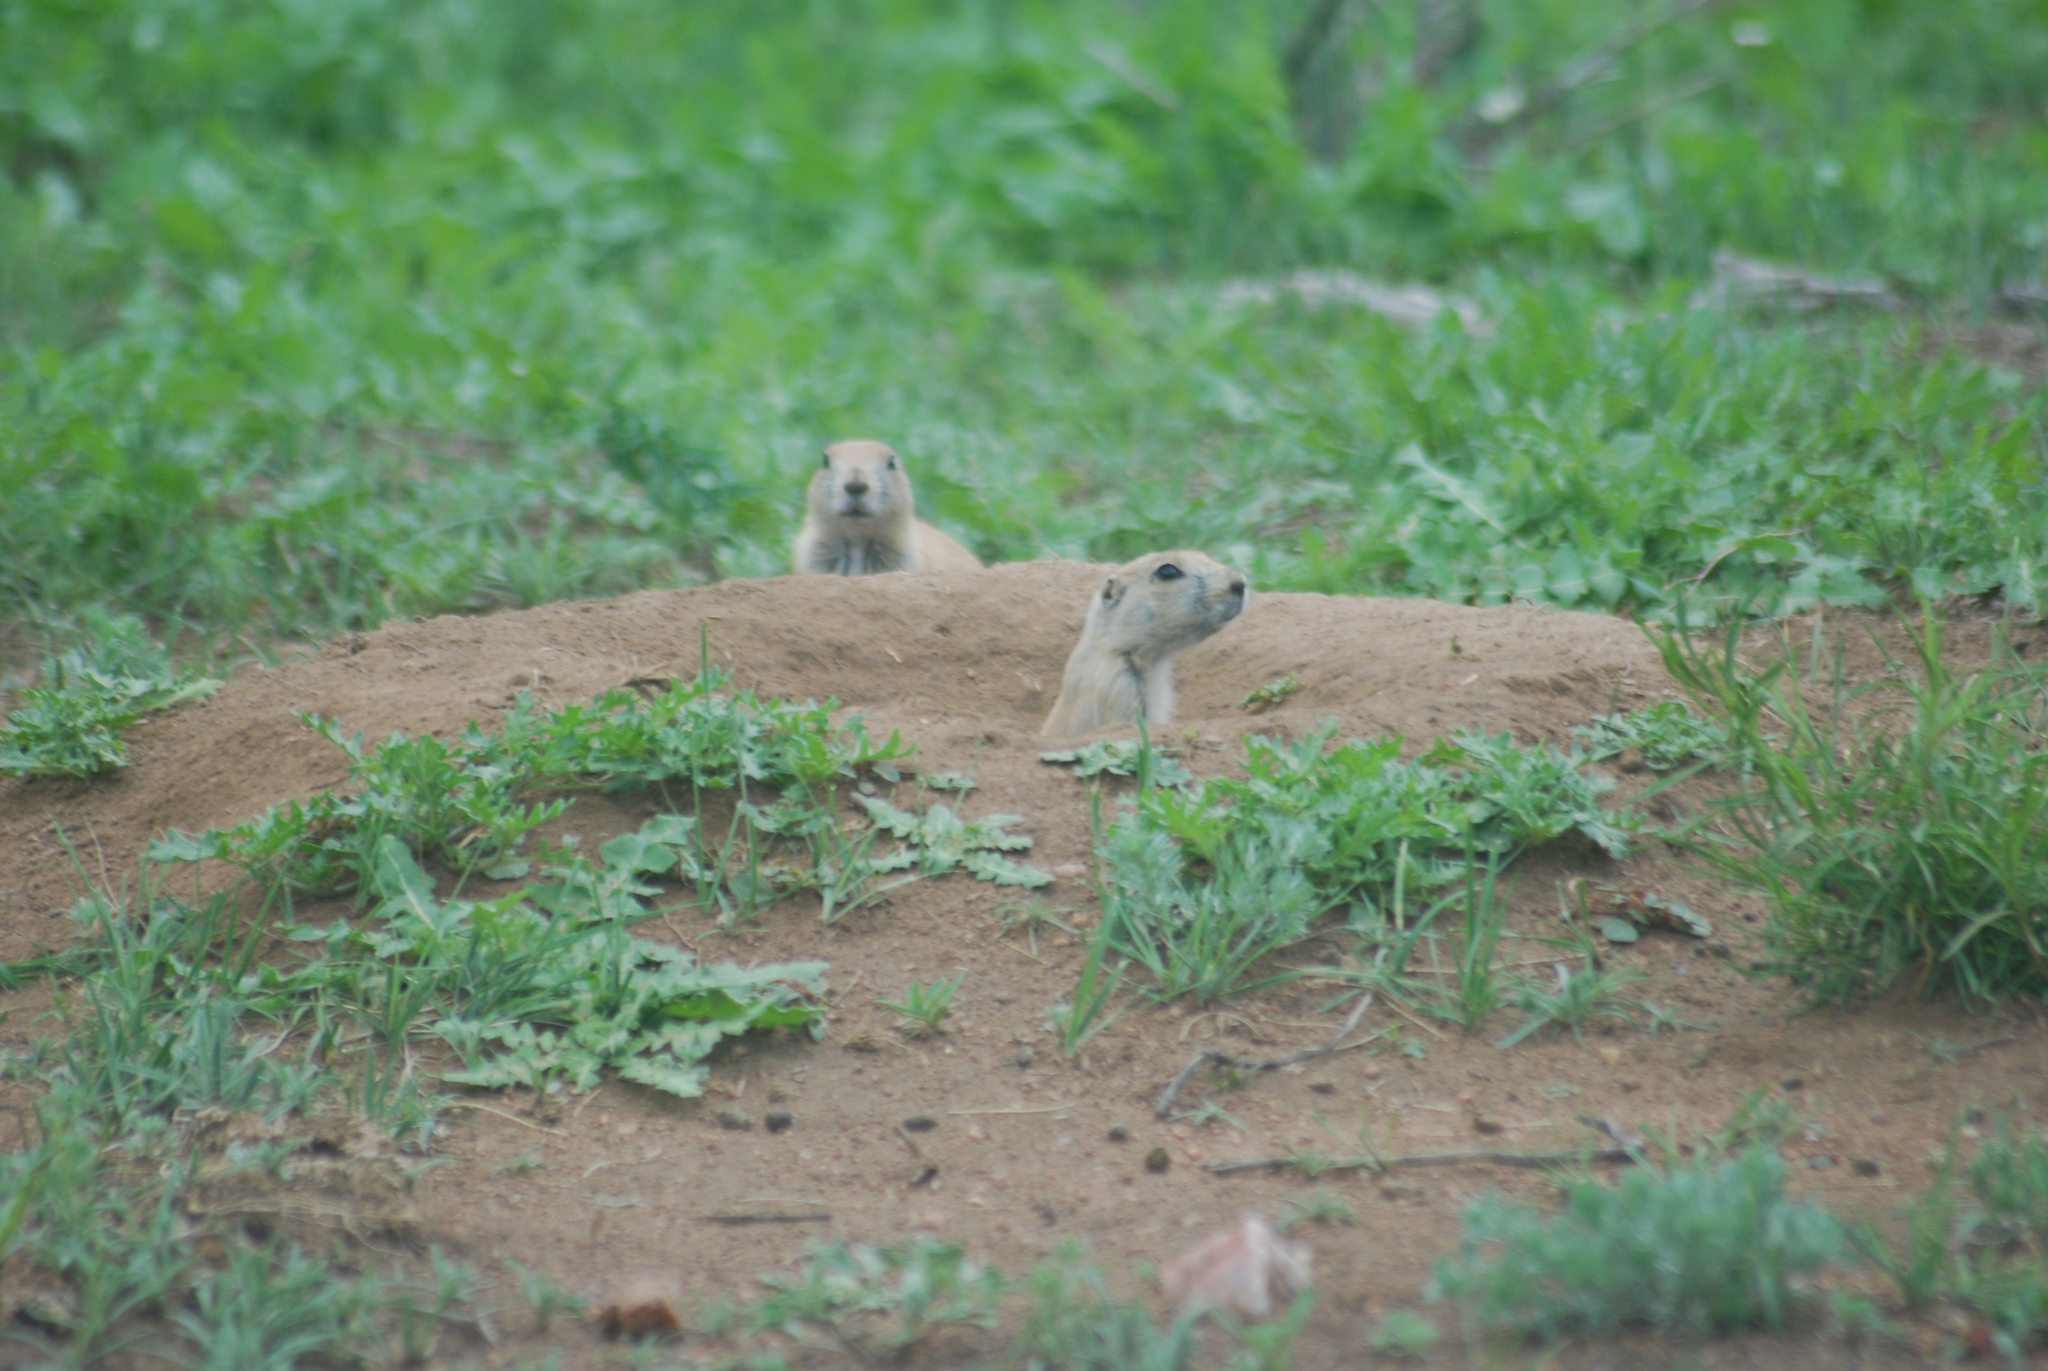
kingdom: Animalia
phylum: Chordata
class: Mammalia
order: Rodentia
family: Sciuridae
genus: Cynomys
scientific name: Cynomys ludovicianus
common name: Black-tailed prairie dog
